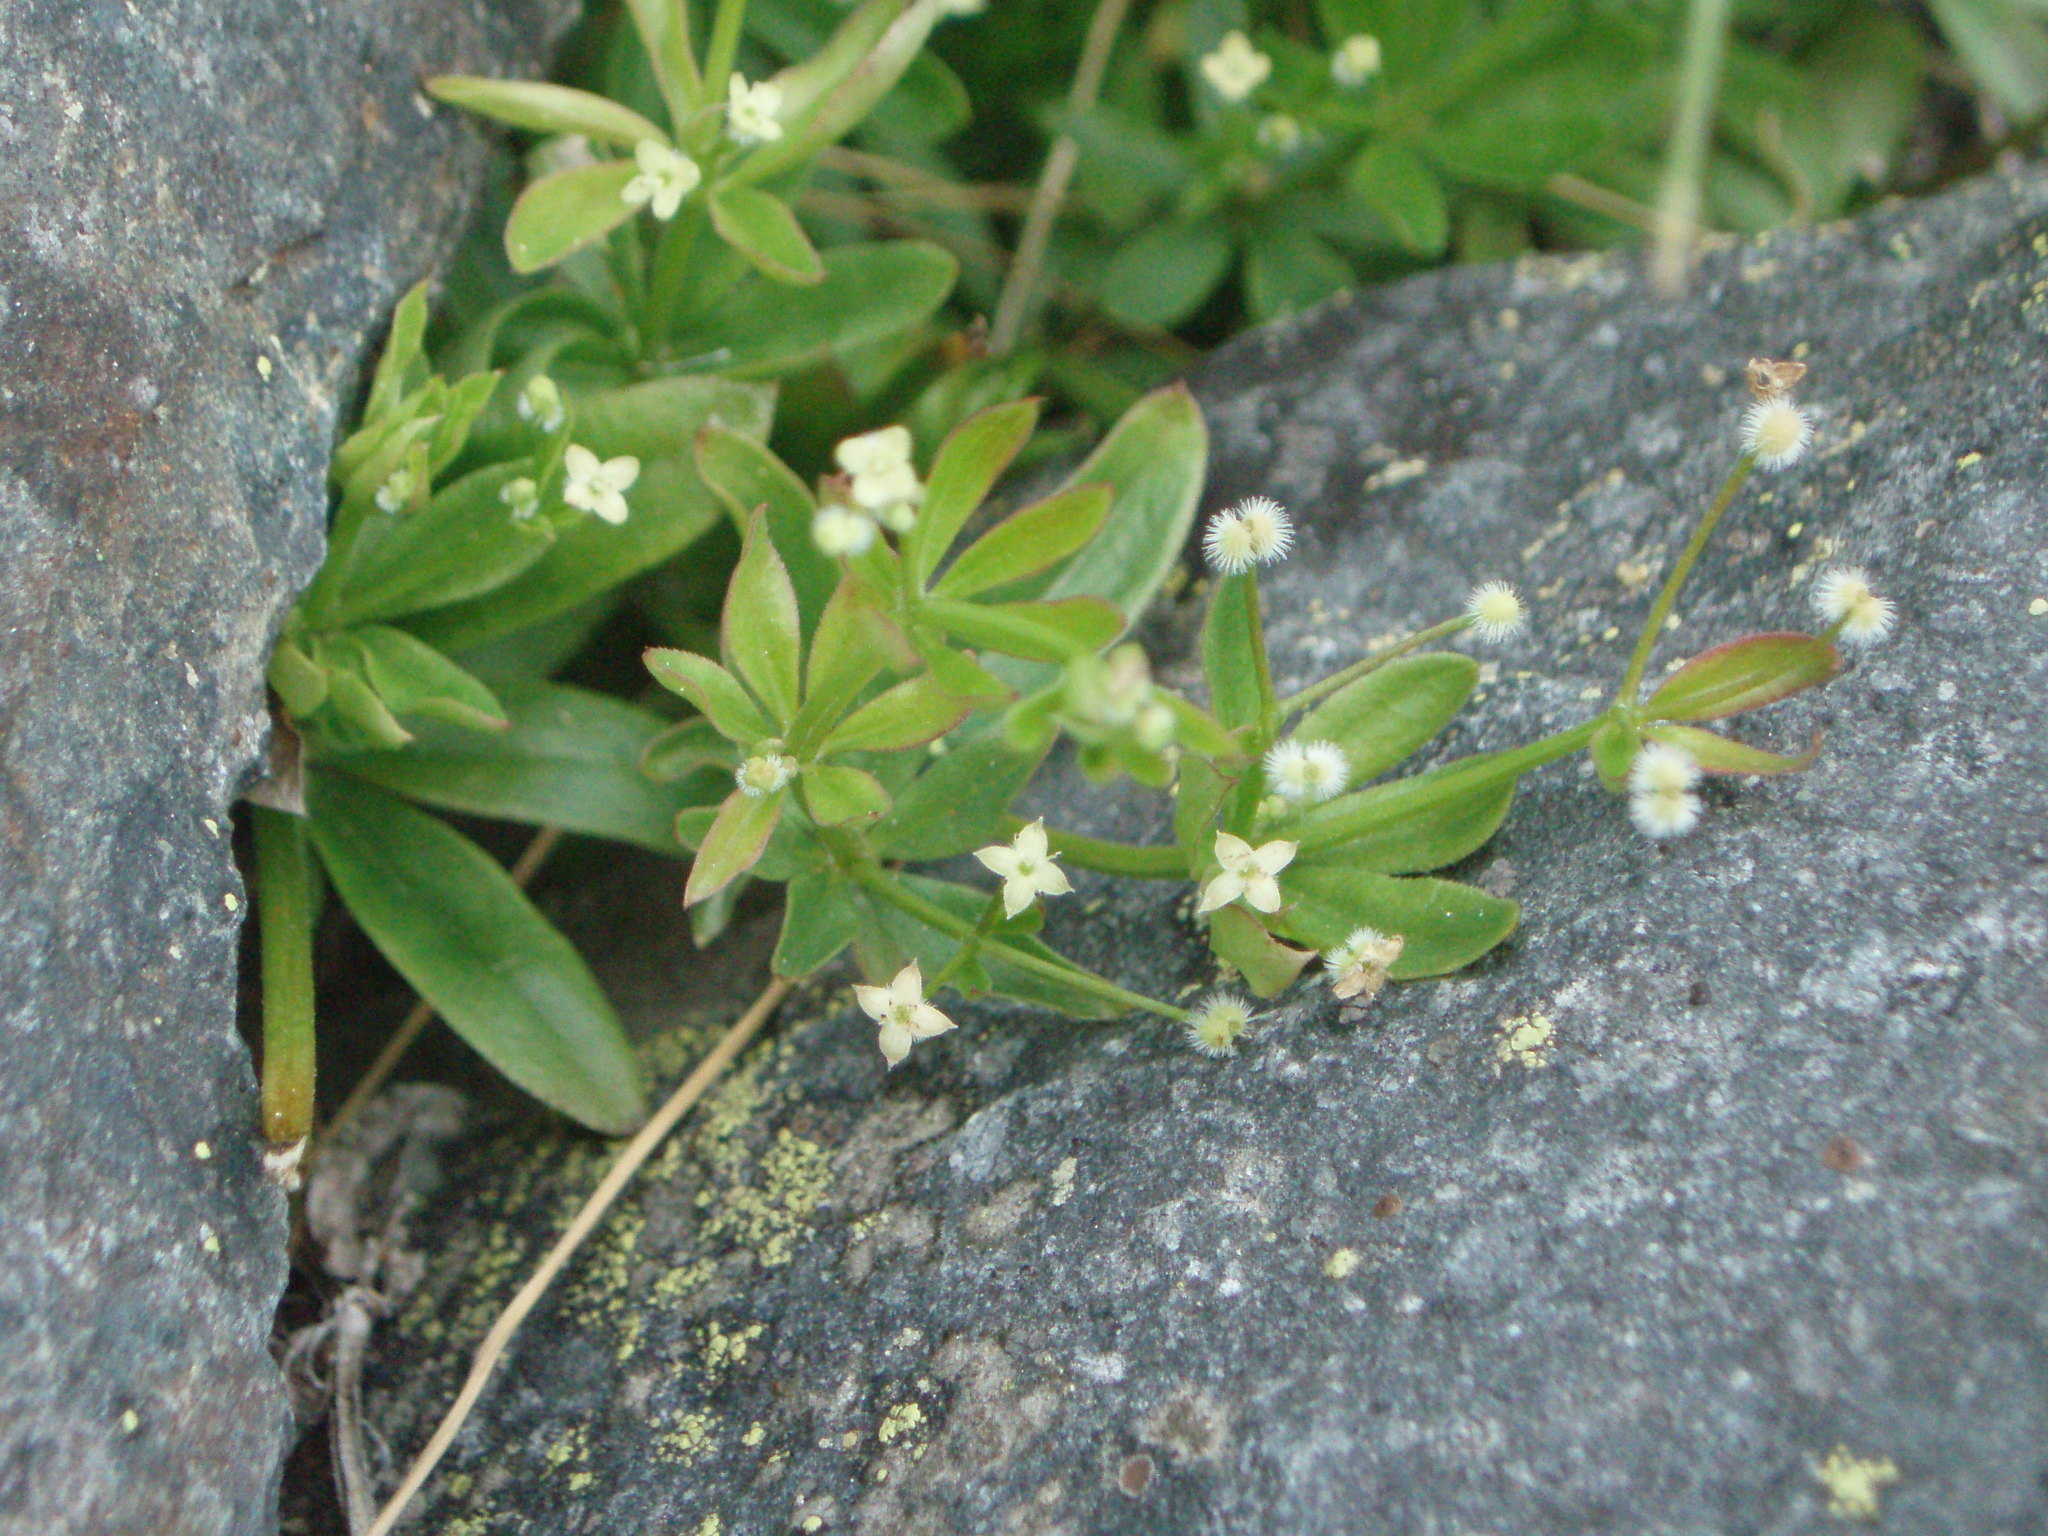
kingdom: Plantae
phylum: Tracheophyta
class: Magnoliopsida
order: Gentianales
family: Rubiaceae
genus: Galium
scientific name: Galium triflorum
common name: Fragrant bedstraw
